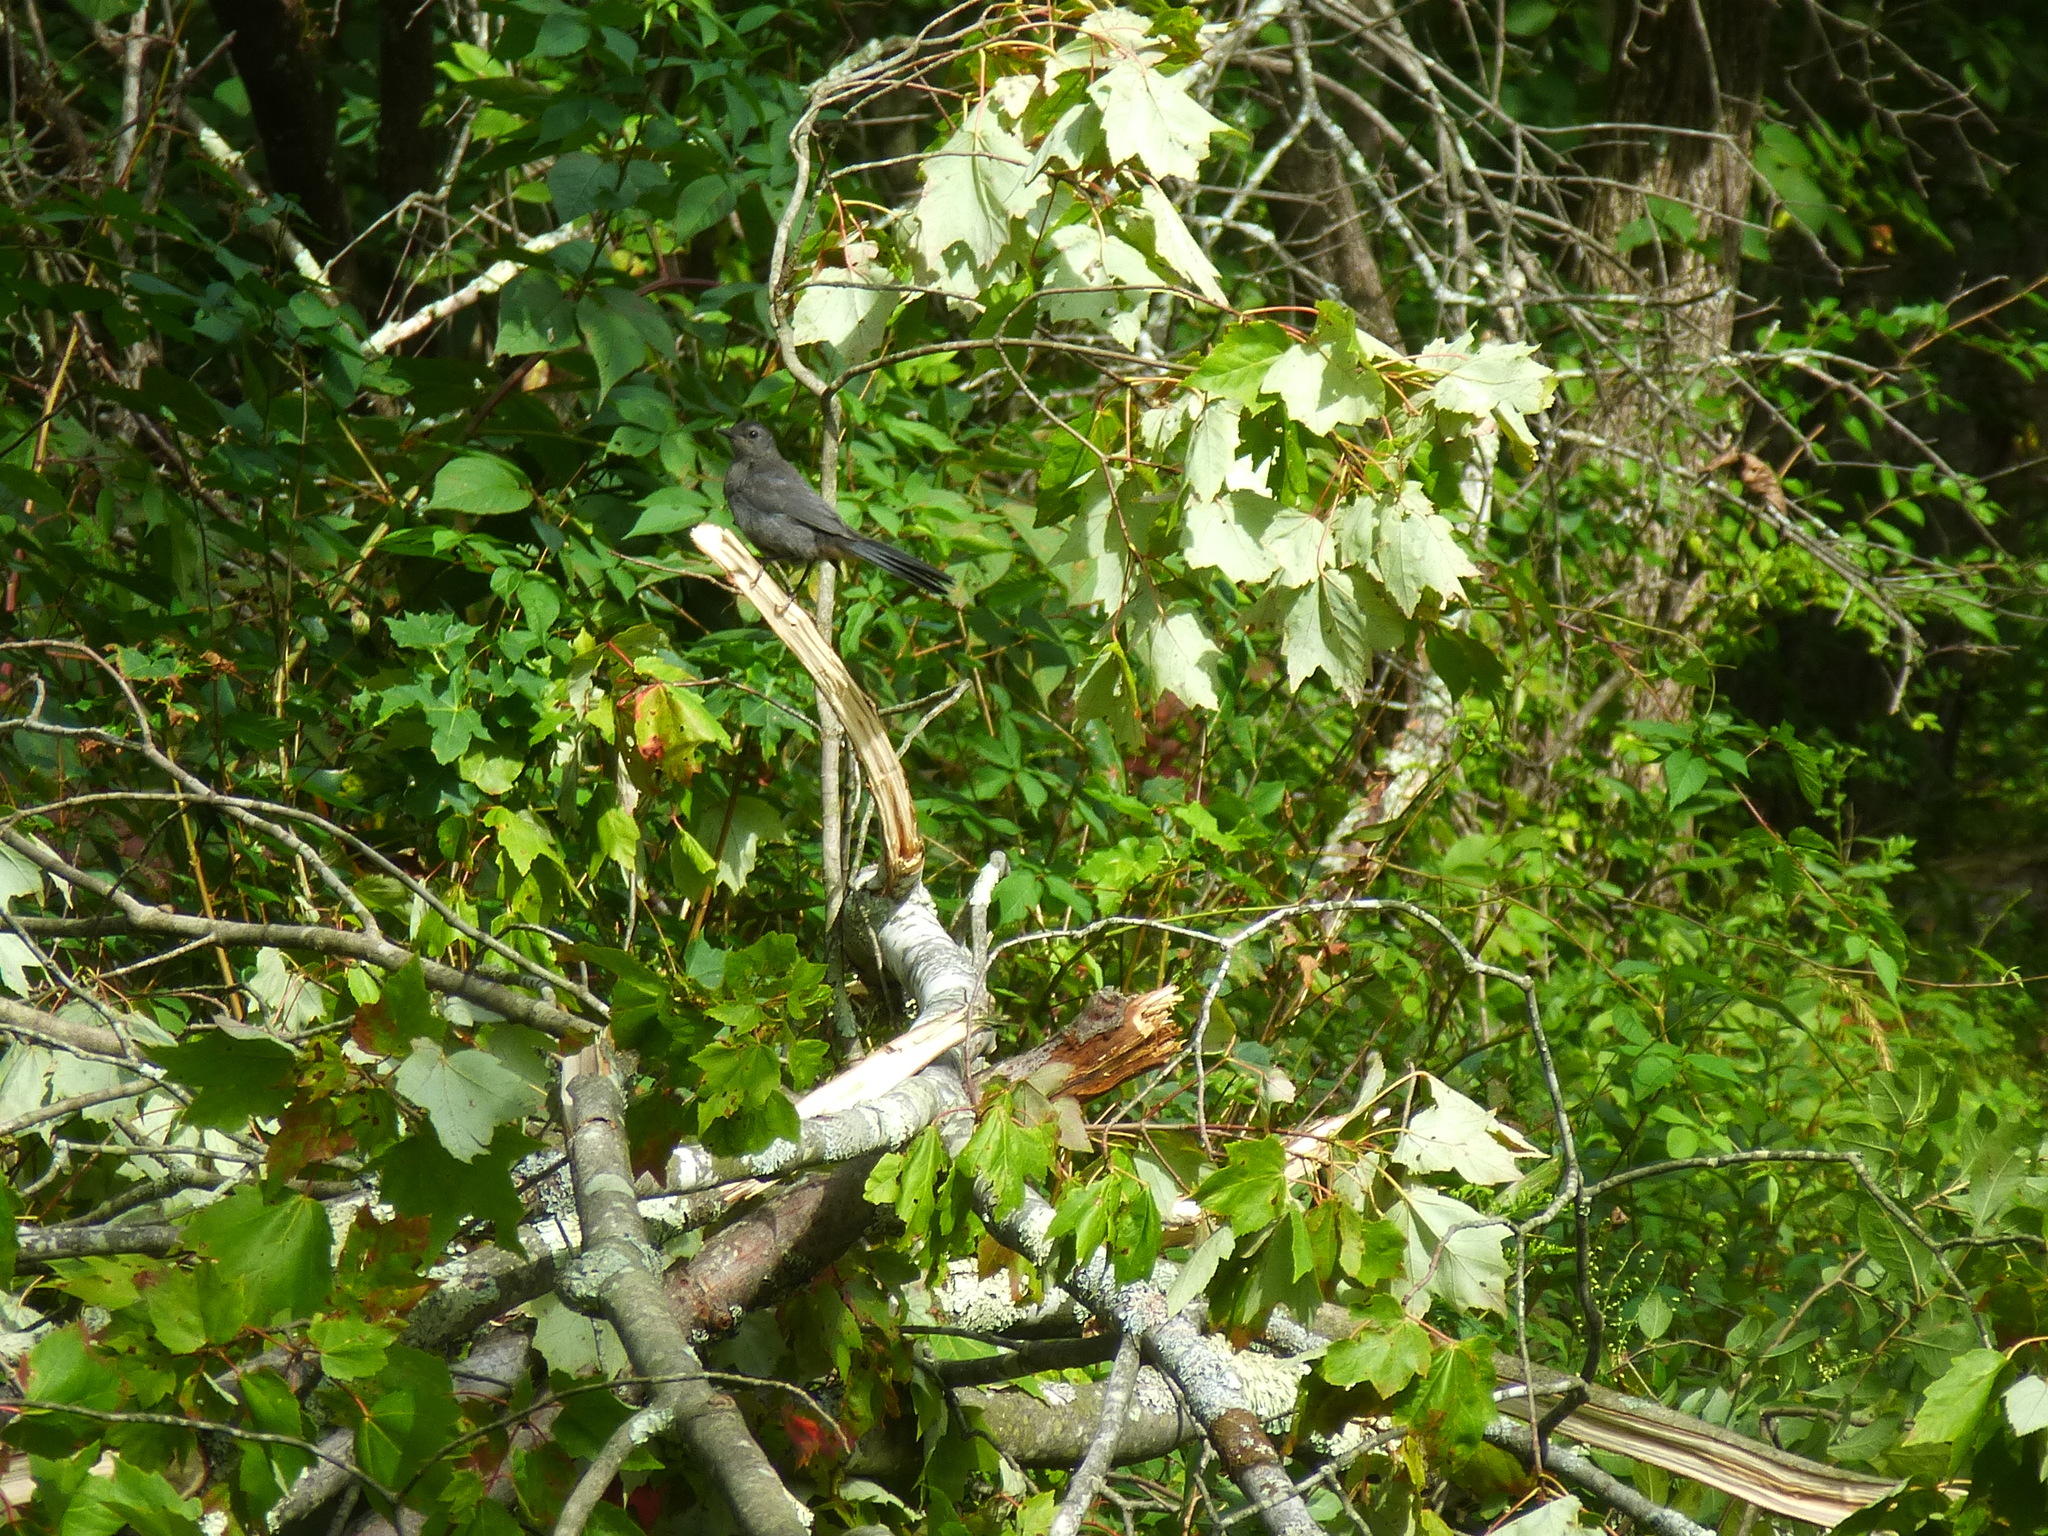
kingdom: Animalia
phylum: Chordata
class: Aves
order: Passeriformes
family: Mimidae
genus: Dumetella
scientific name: Dumetella carolinensis
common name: Gray catbird
